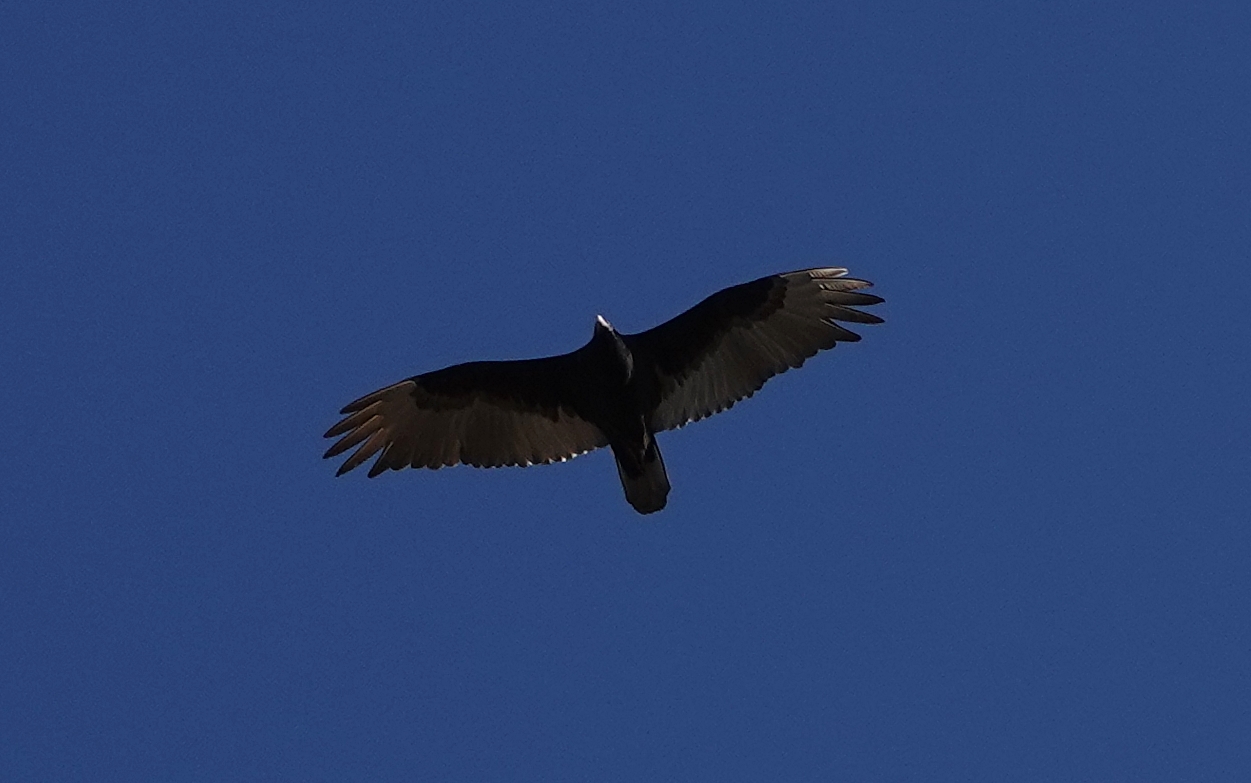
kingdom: Animalia
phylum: Chordata
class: Aves
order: Accipitriformes
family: Cathartidae
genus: Cathartes
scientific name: Cathartes aura
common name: Turkey vulture
